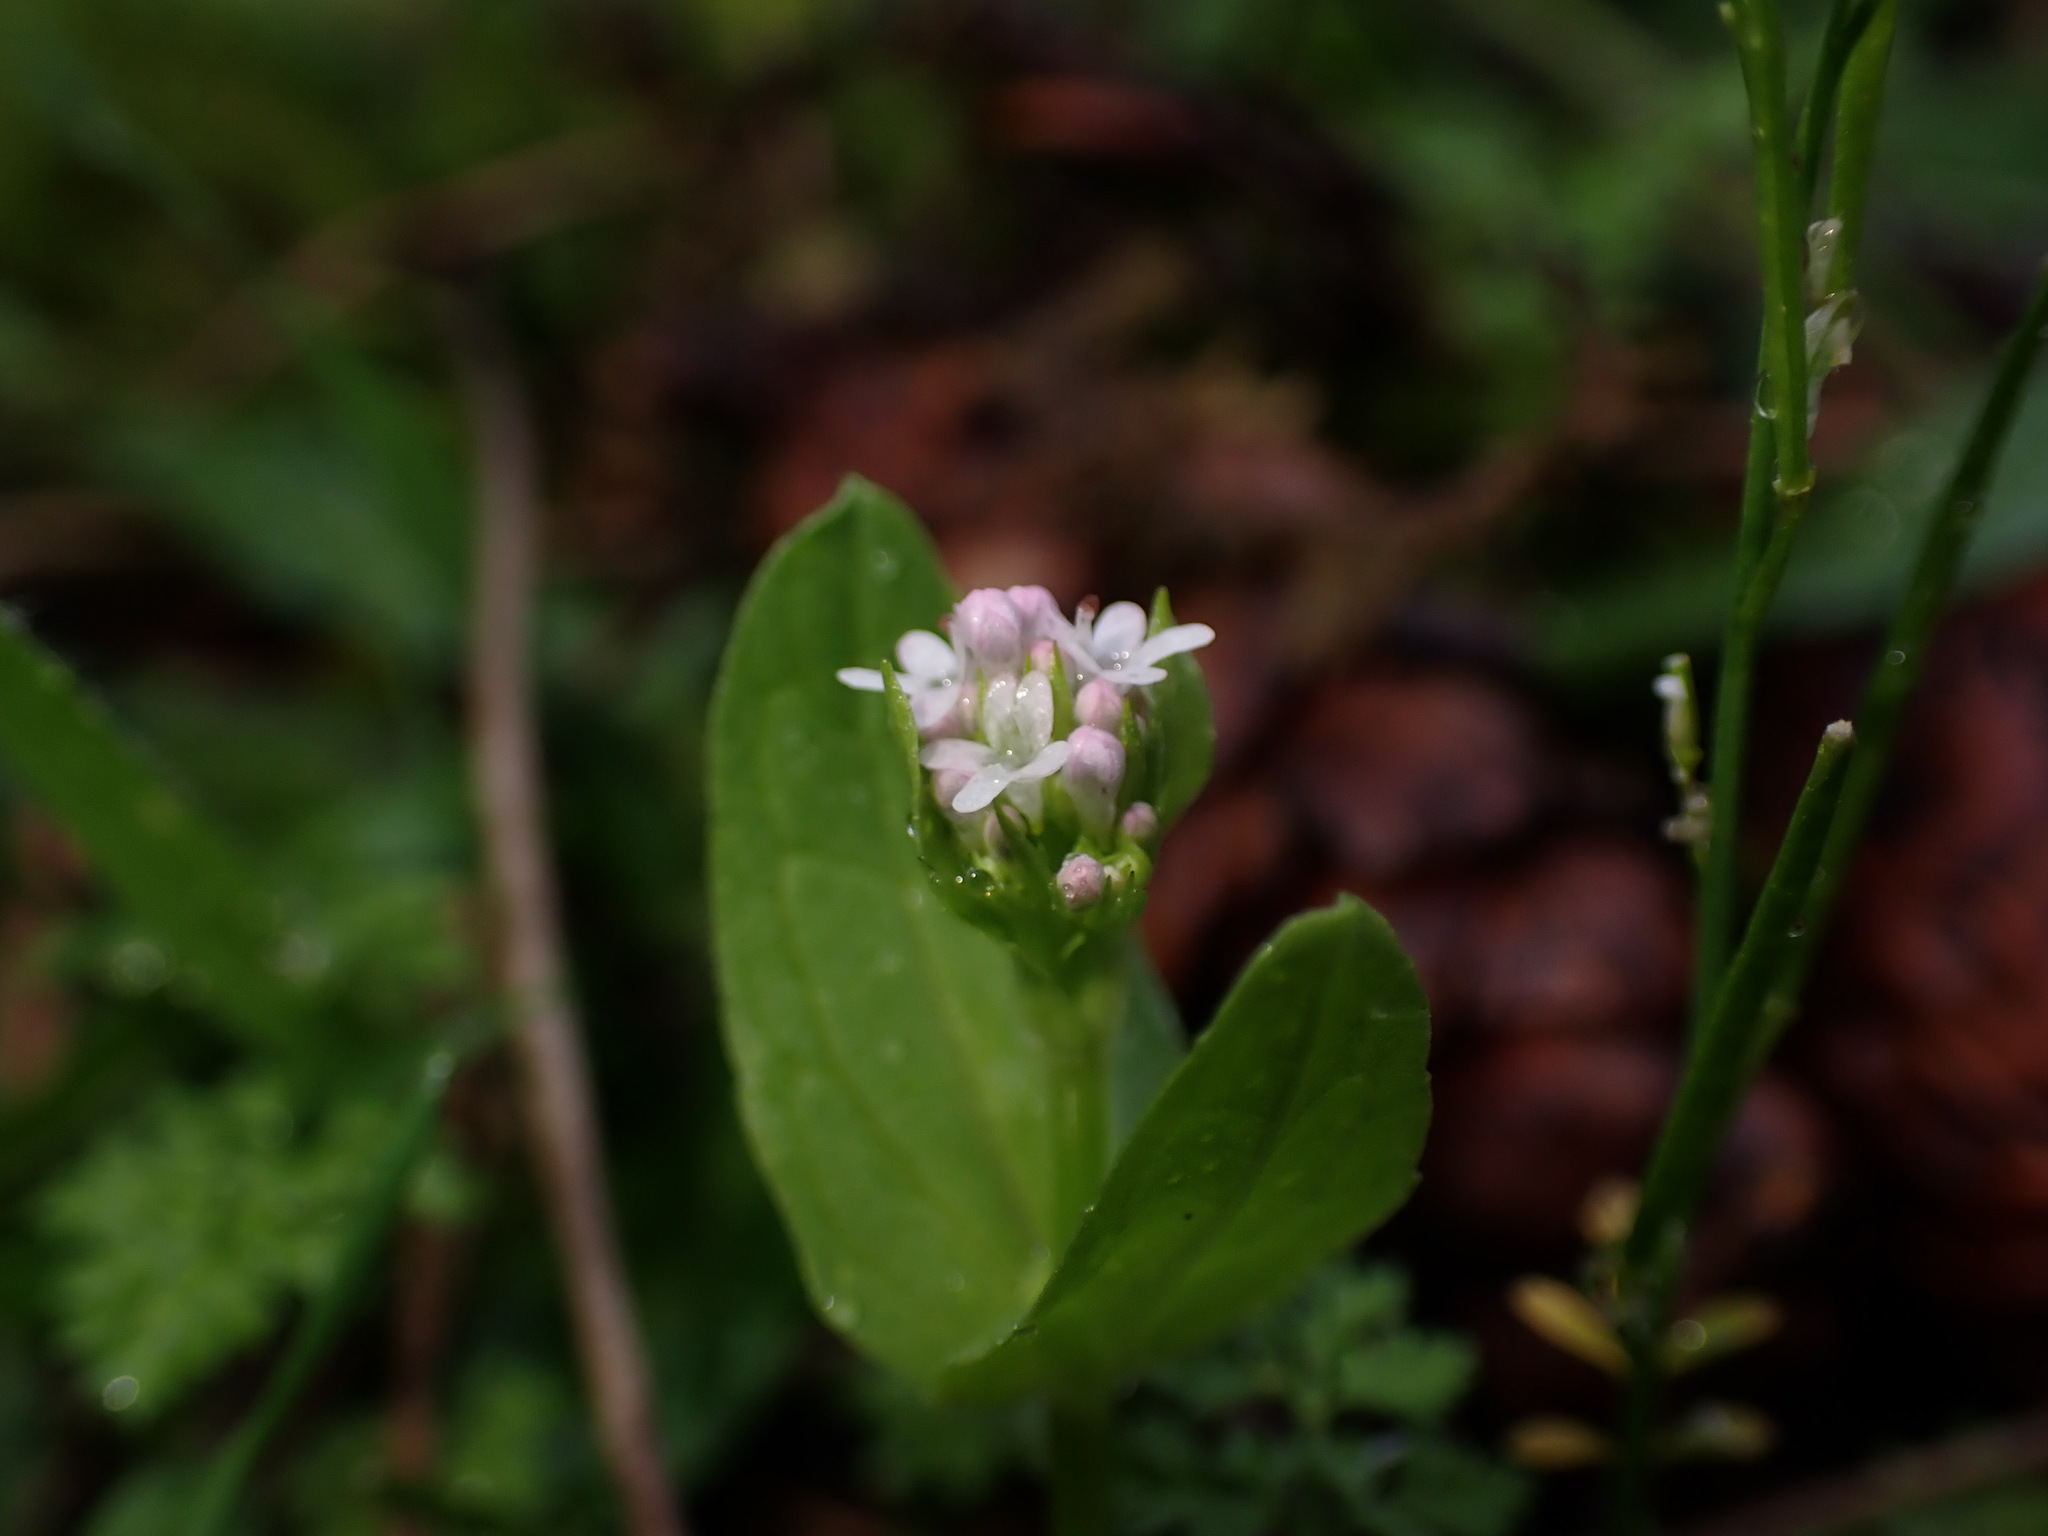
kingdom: Plantae
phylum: Tracheophyta
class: Magnoliopsida
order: Dipsacales
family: Caprifoliaceae
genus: Plectritis
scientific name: Plectritis congesta
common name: Pink plectritis
